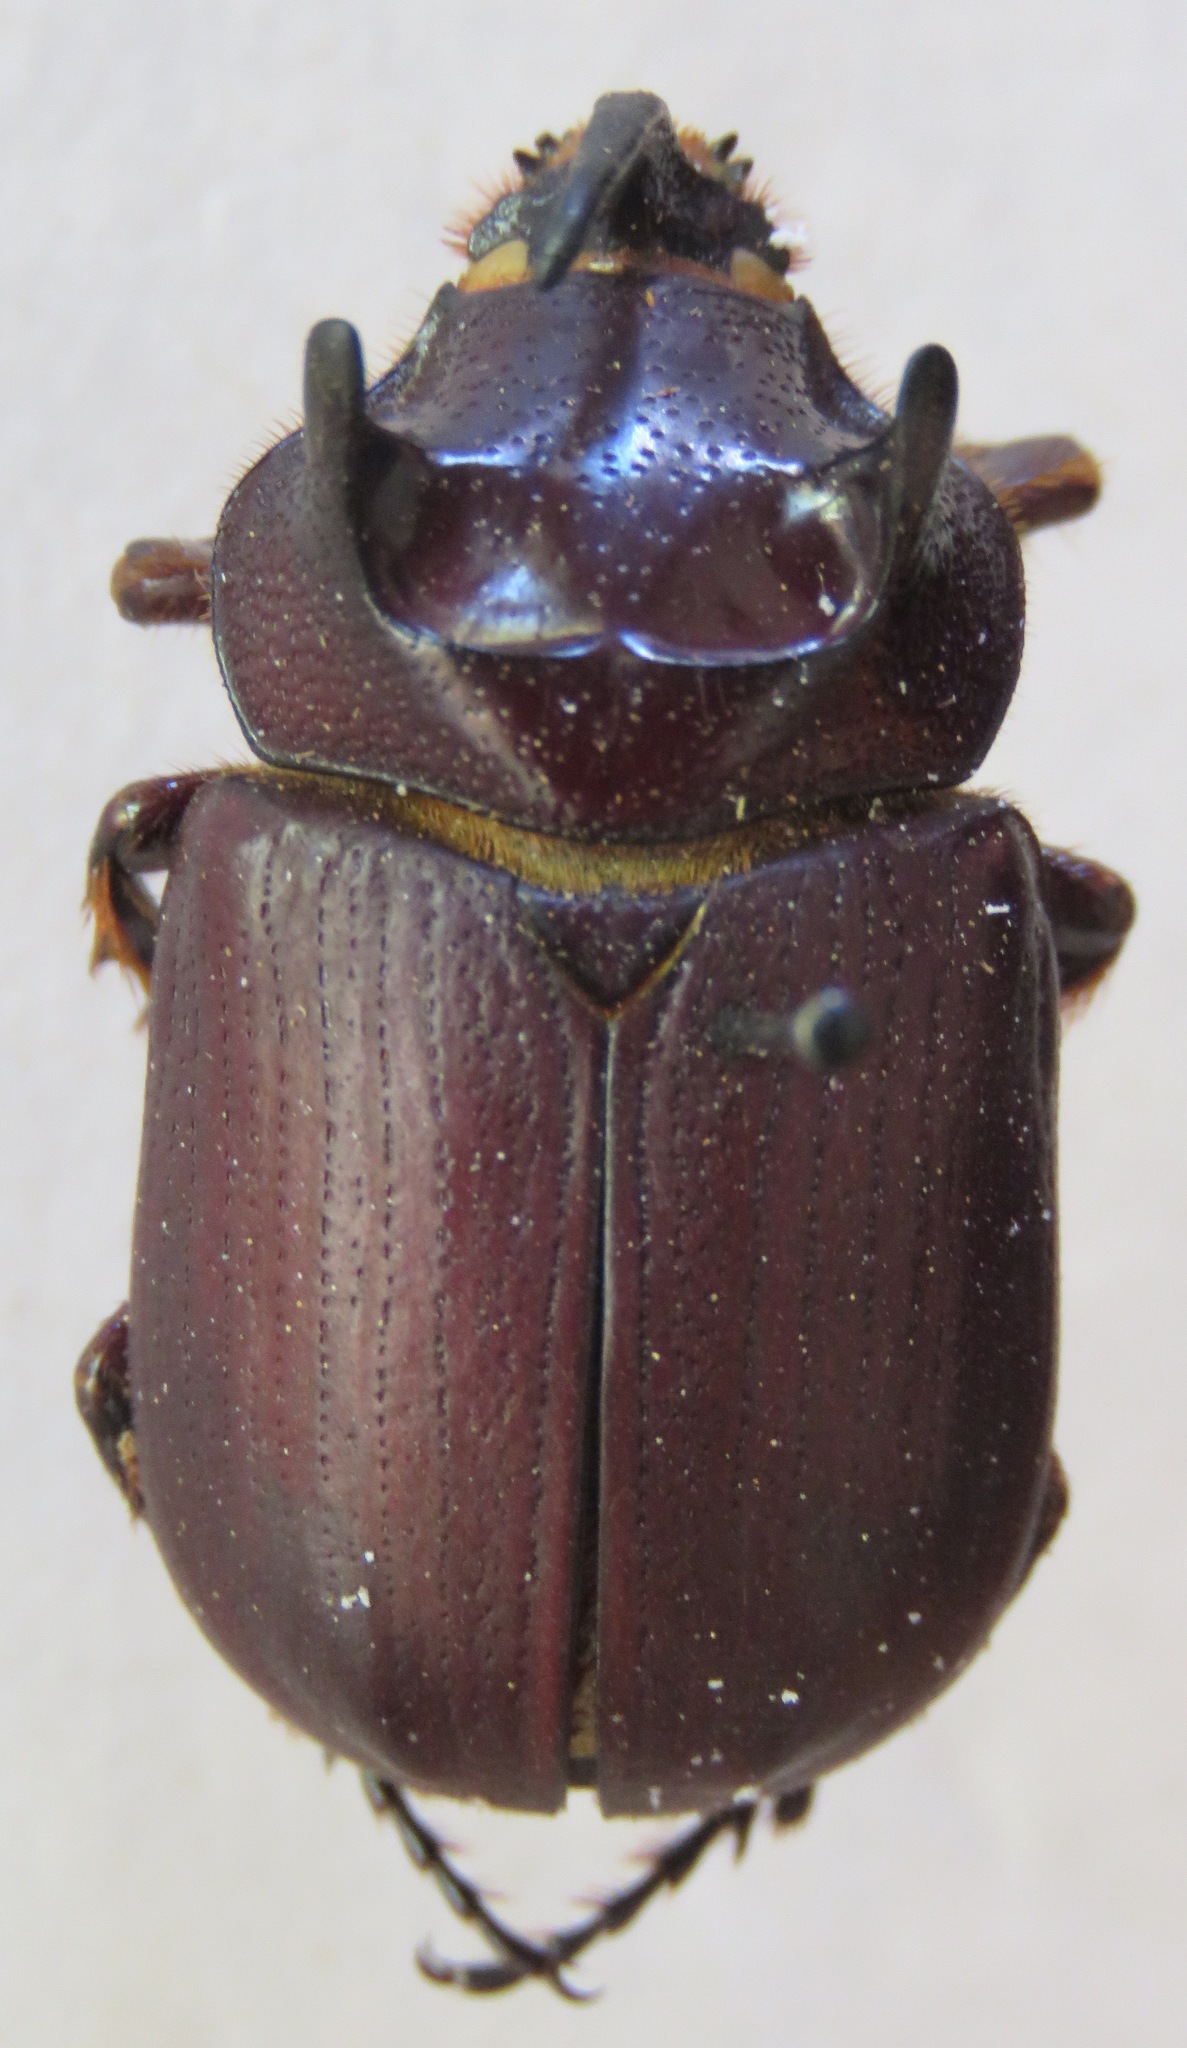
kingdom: Animalia
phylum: Arthropoda
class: Insecta
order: Coleoptera
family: Scarabaeidae
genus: Coelosis
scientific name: Coelosis bicornis
